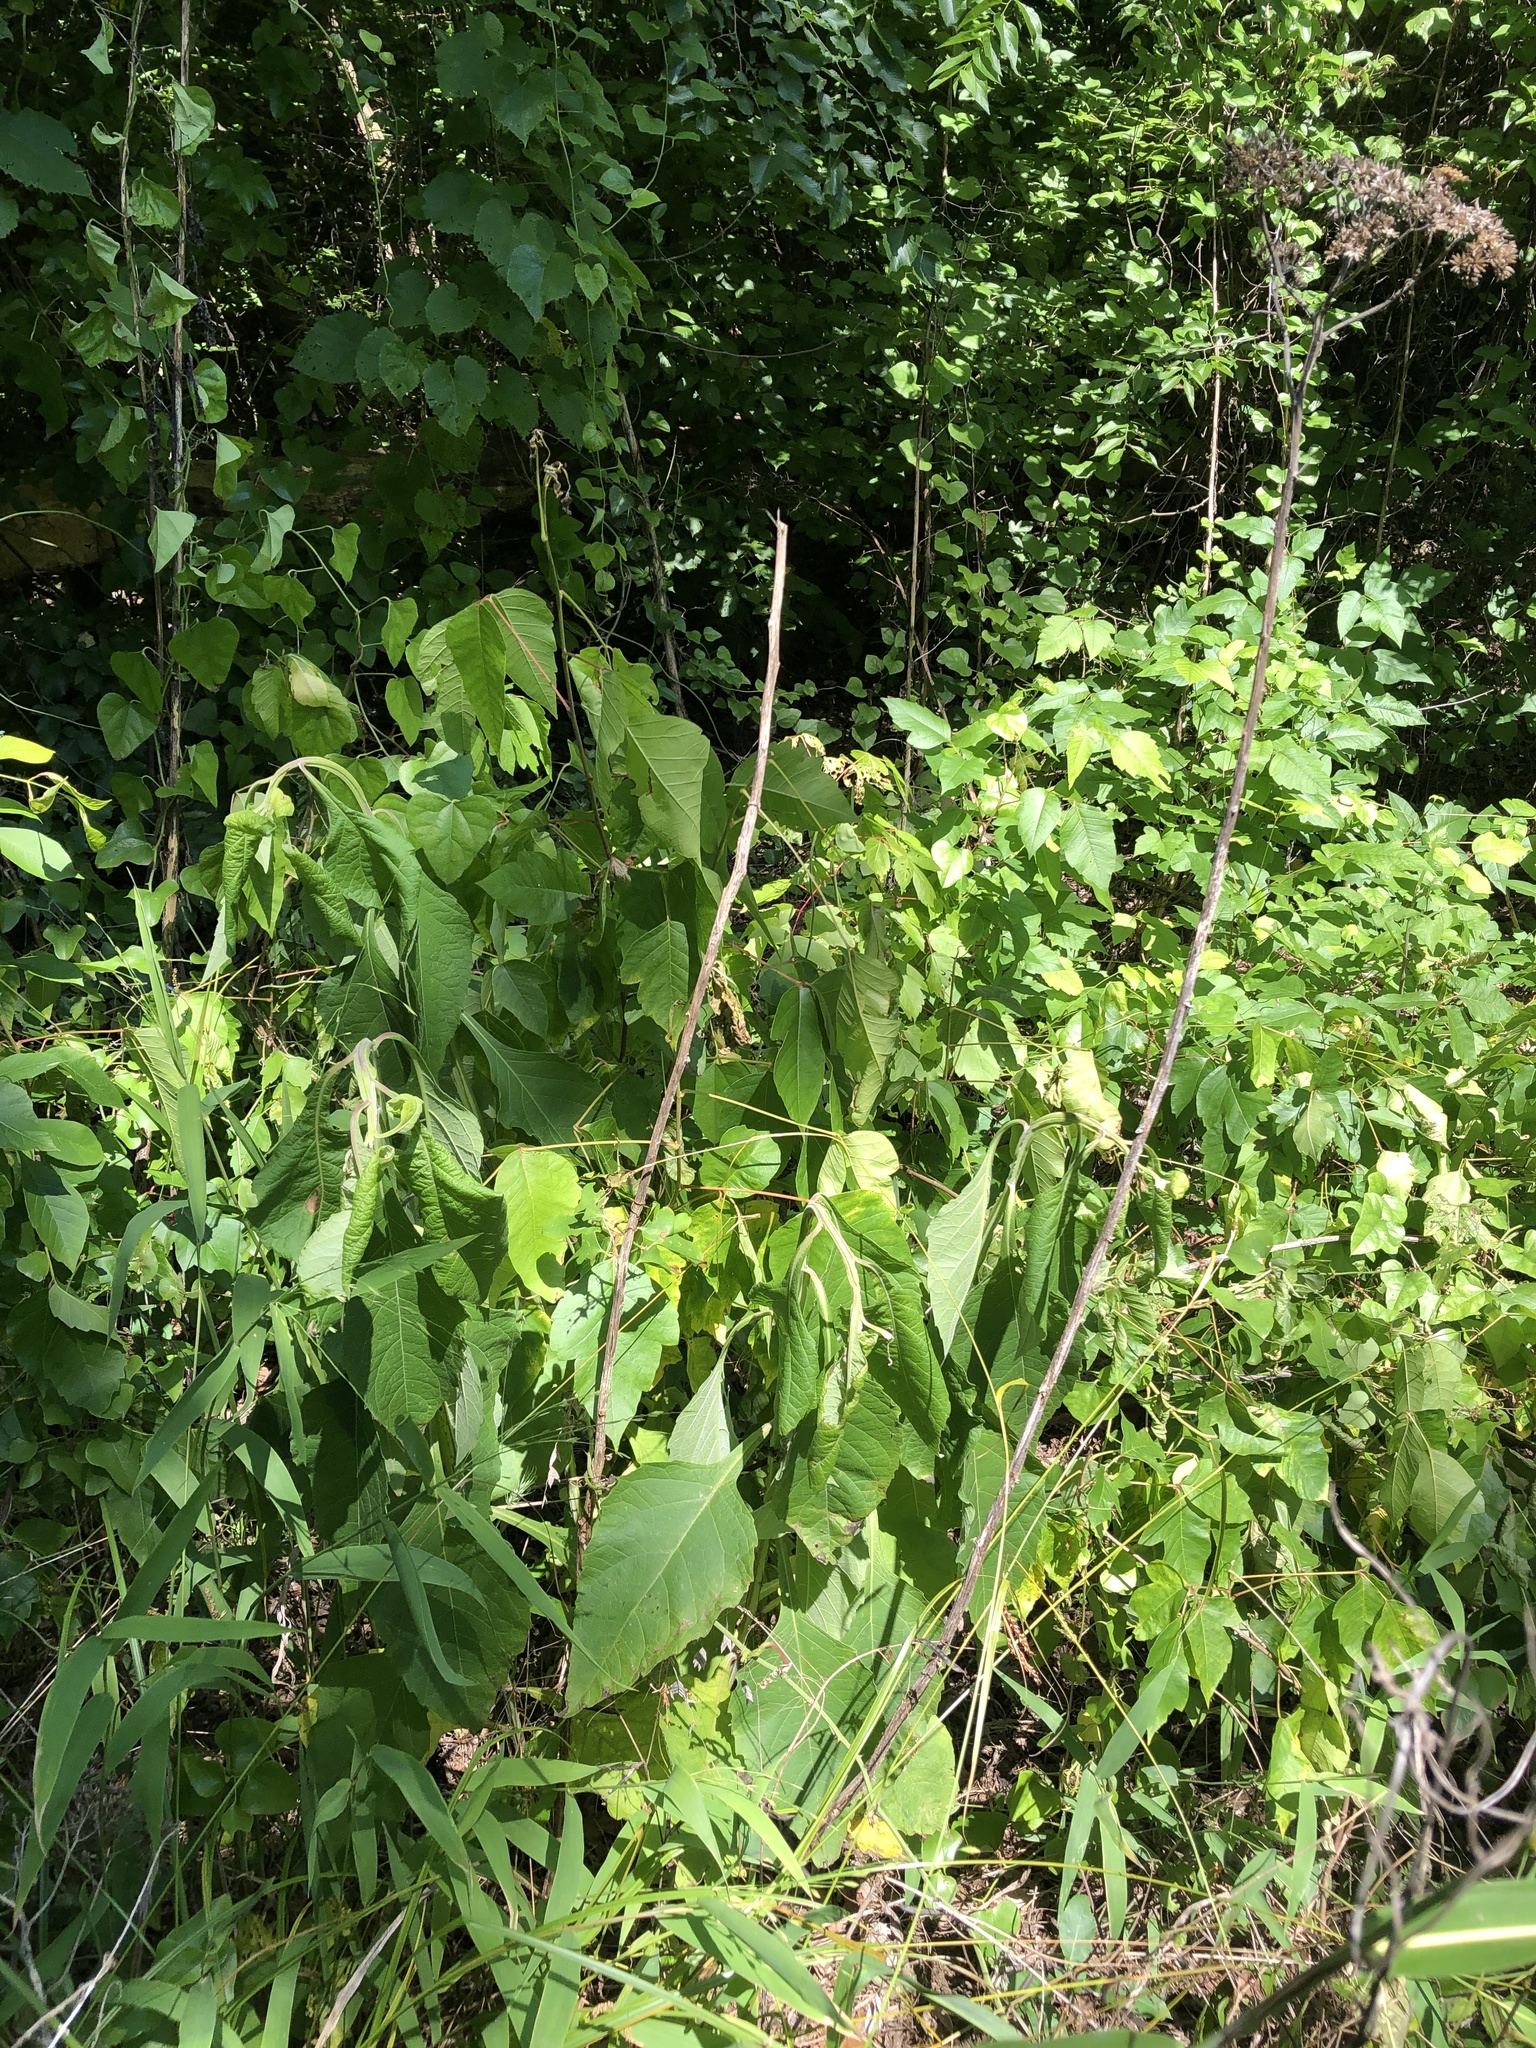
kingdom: Plantae
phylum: Tracheophyta
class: Magnoliopsida
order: Asterales
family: Asteraceae
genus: Verbesina
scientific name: Verbesina virginica
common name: Frostweed
